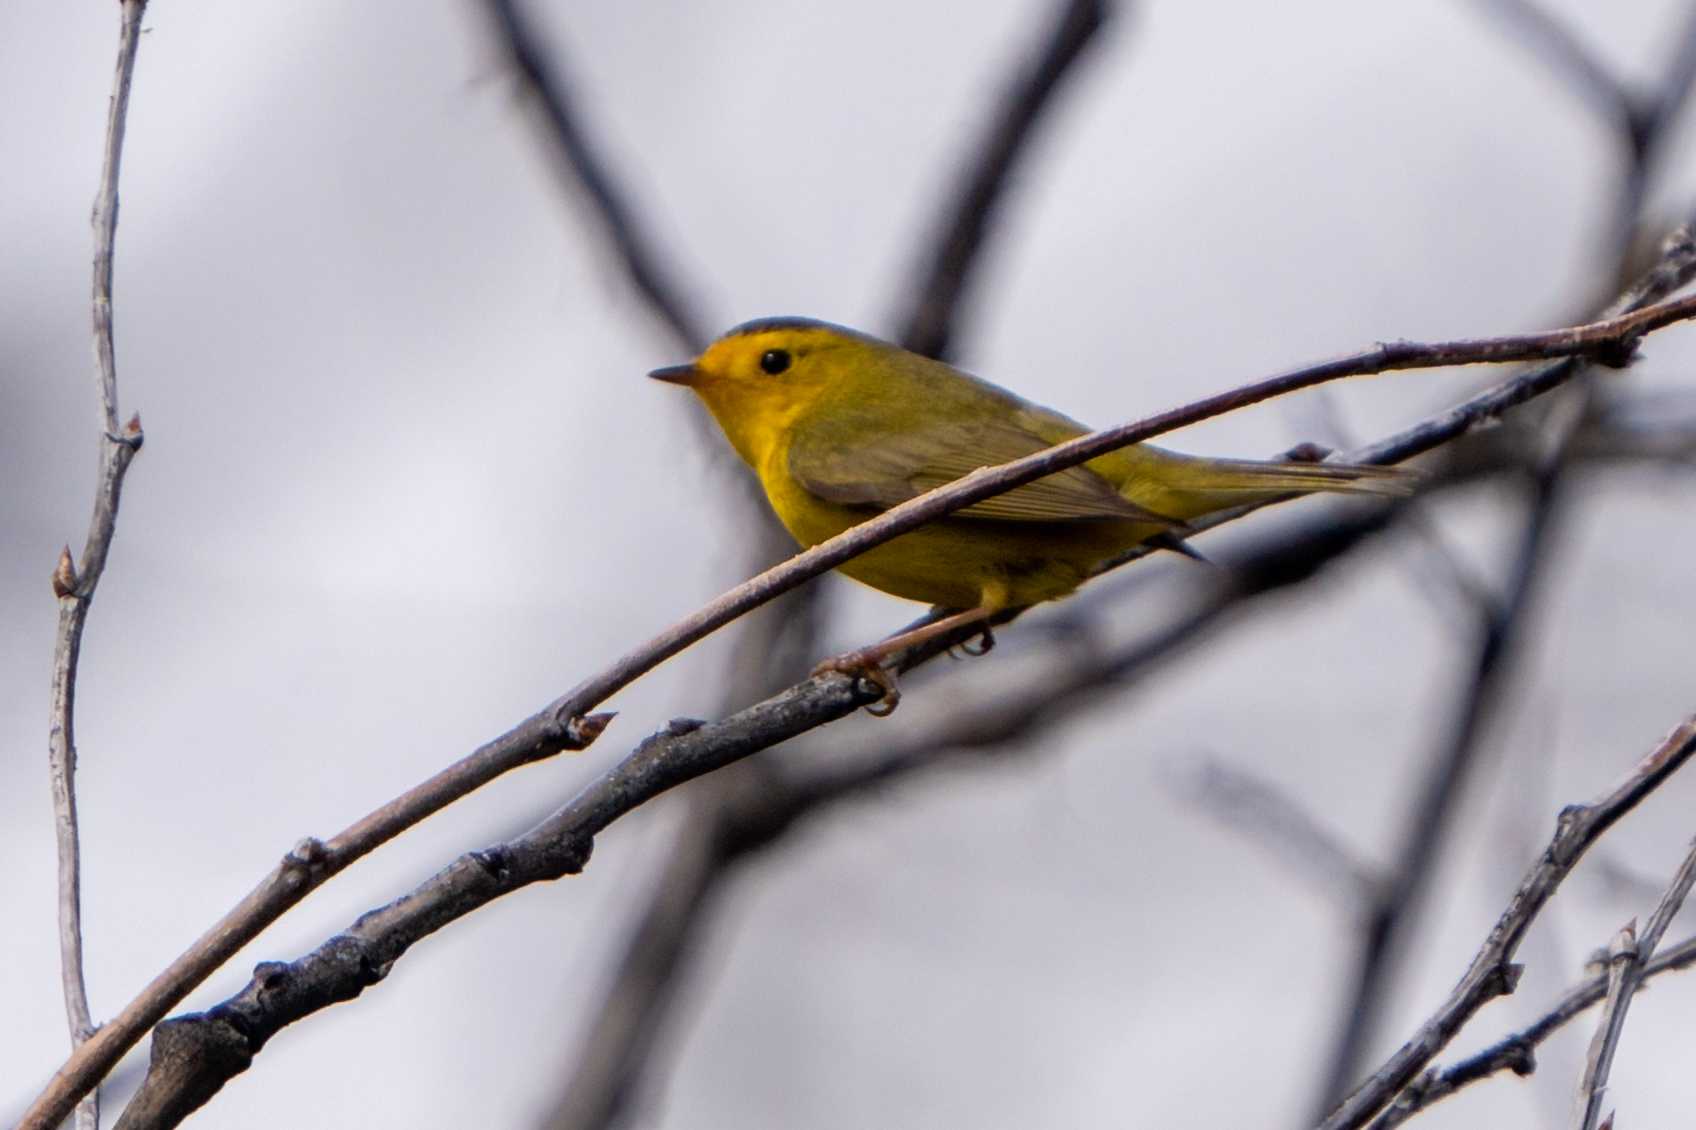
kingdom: Animalia
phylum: Chordata
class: Aves
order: Passeriformes
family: Parulidae
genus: Cardellina
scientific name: Cardellina pusilla
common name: Wilson's warbler
